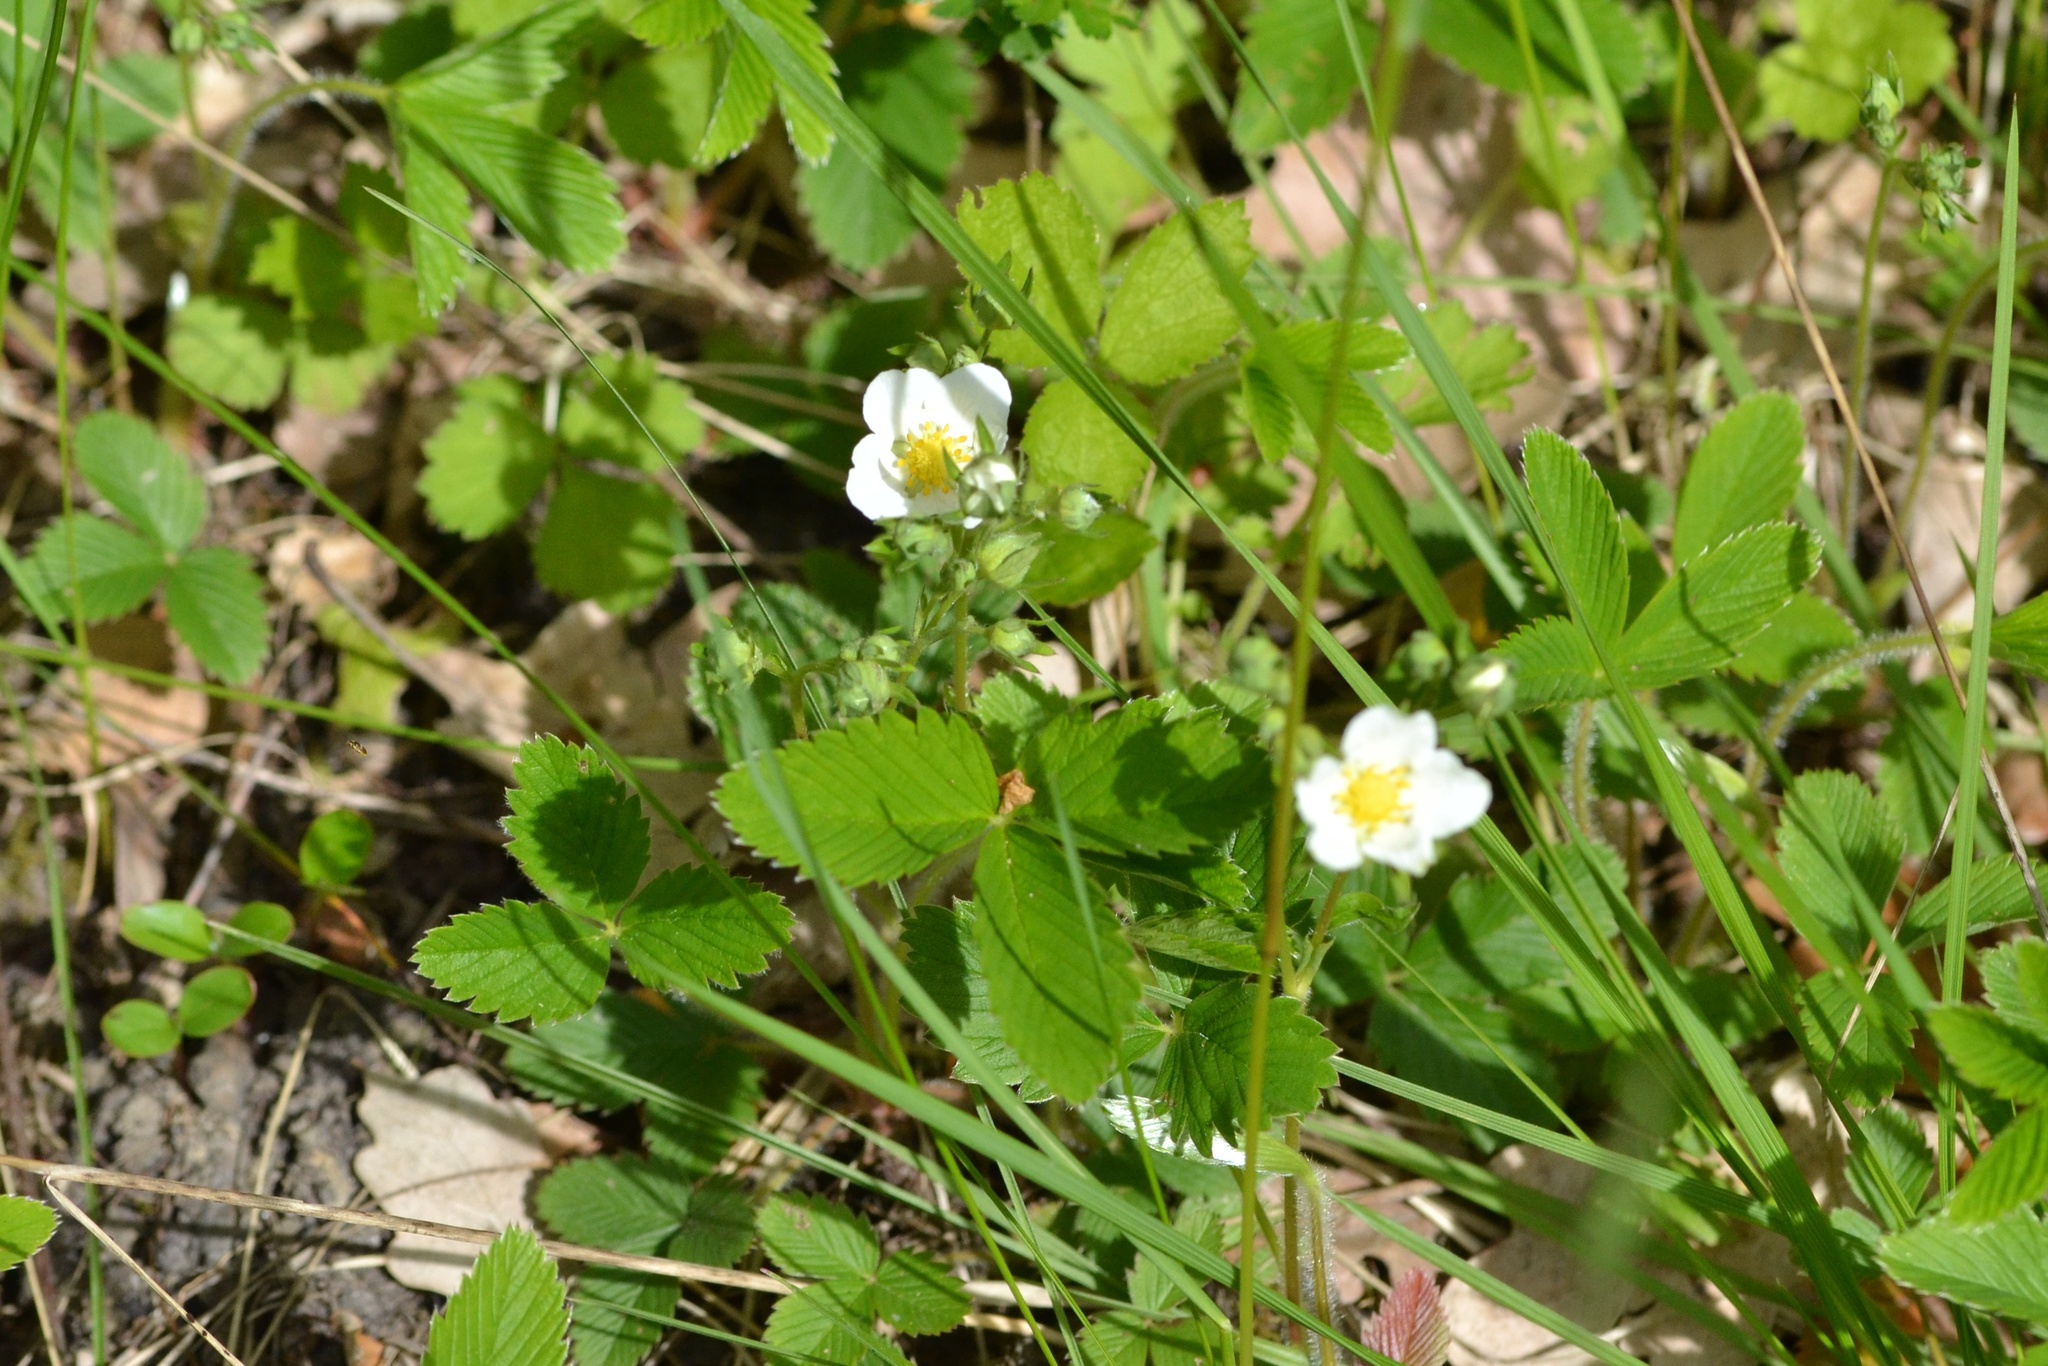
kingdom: Plantae
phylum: Tracheophyta
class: Magnoliopsida
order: Rosales
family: Rosaceae
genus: Fragaria
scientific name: Fragaria viridis
